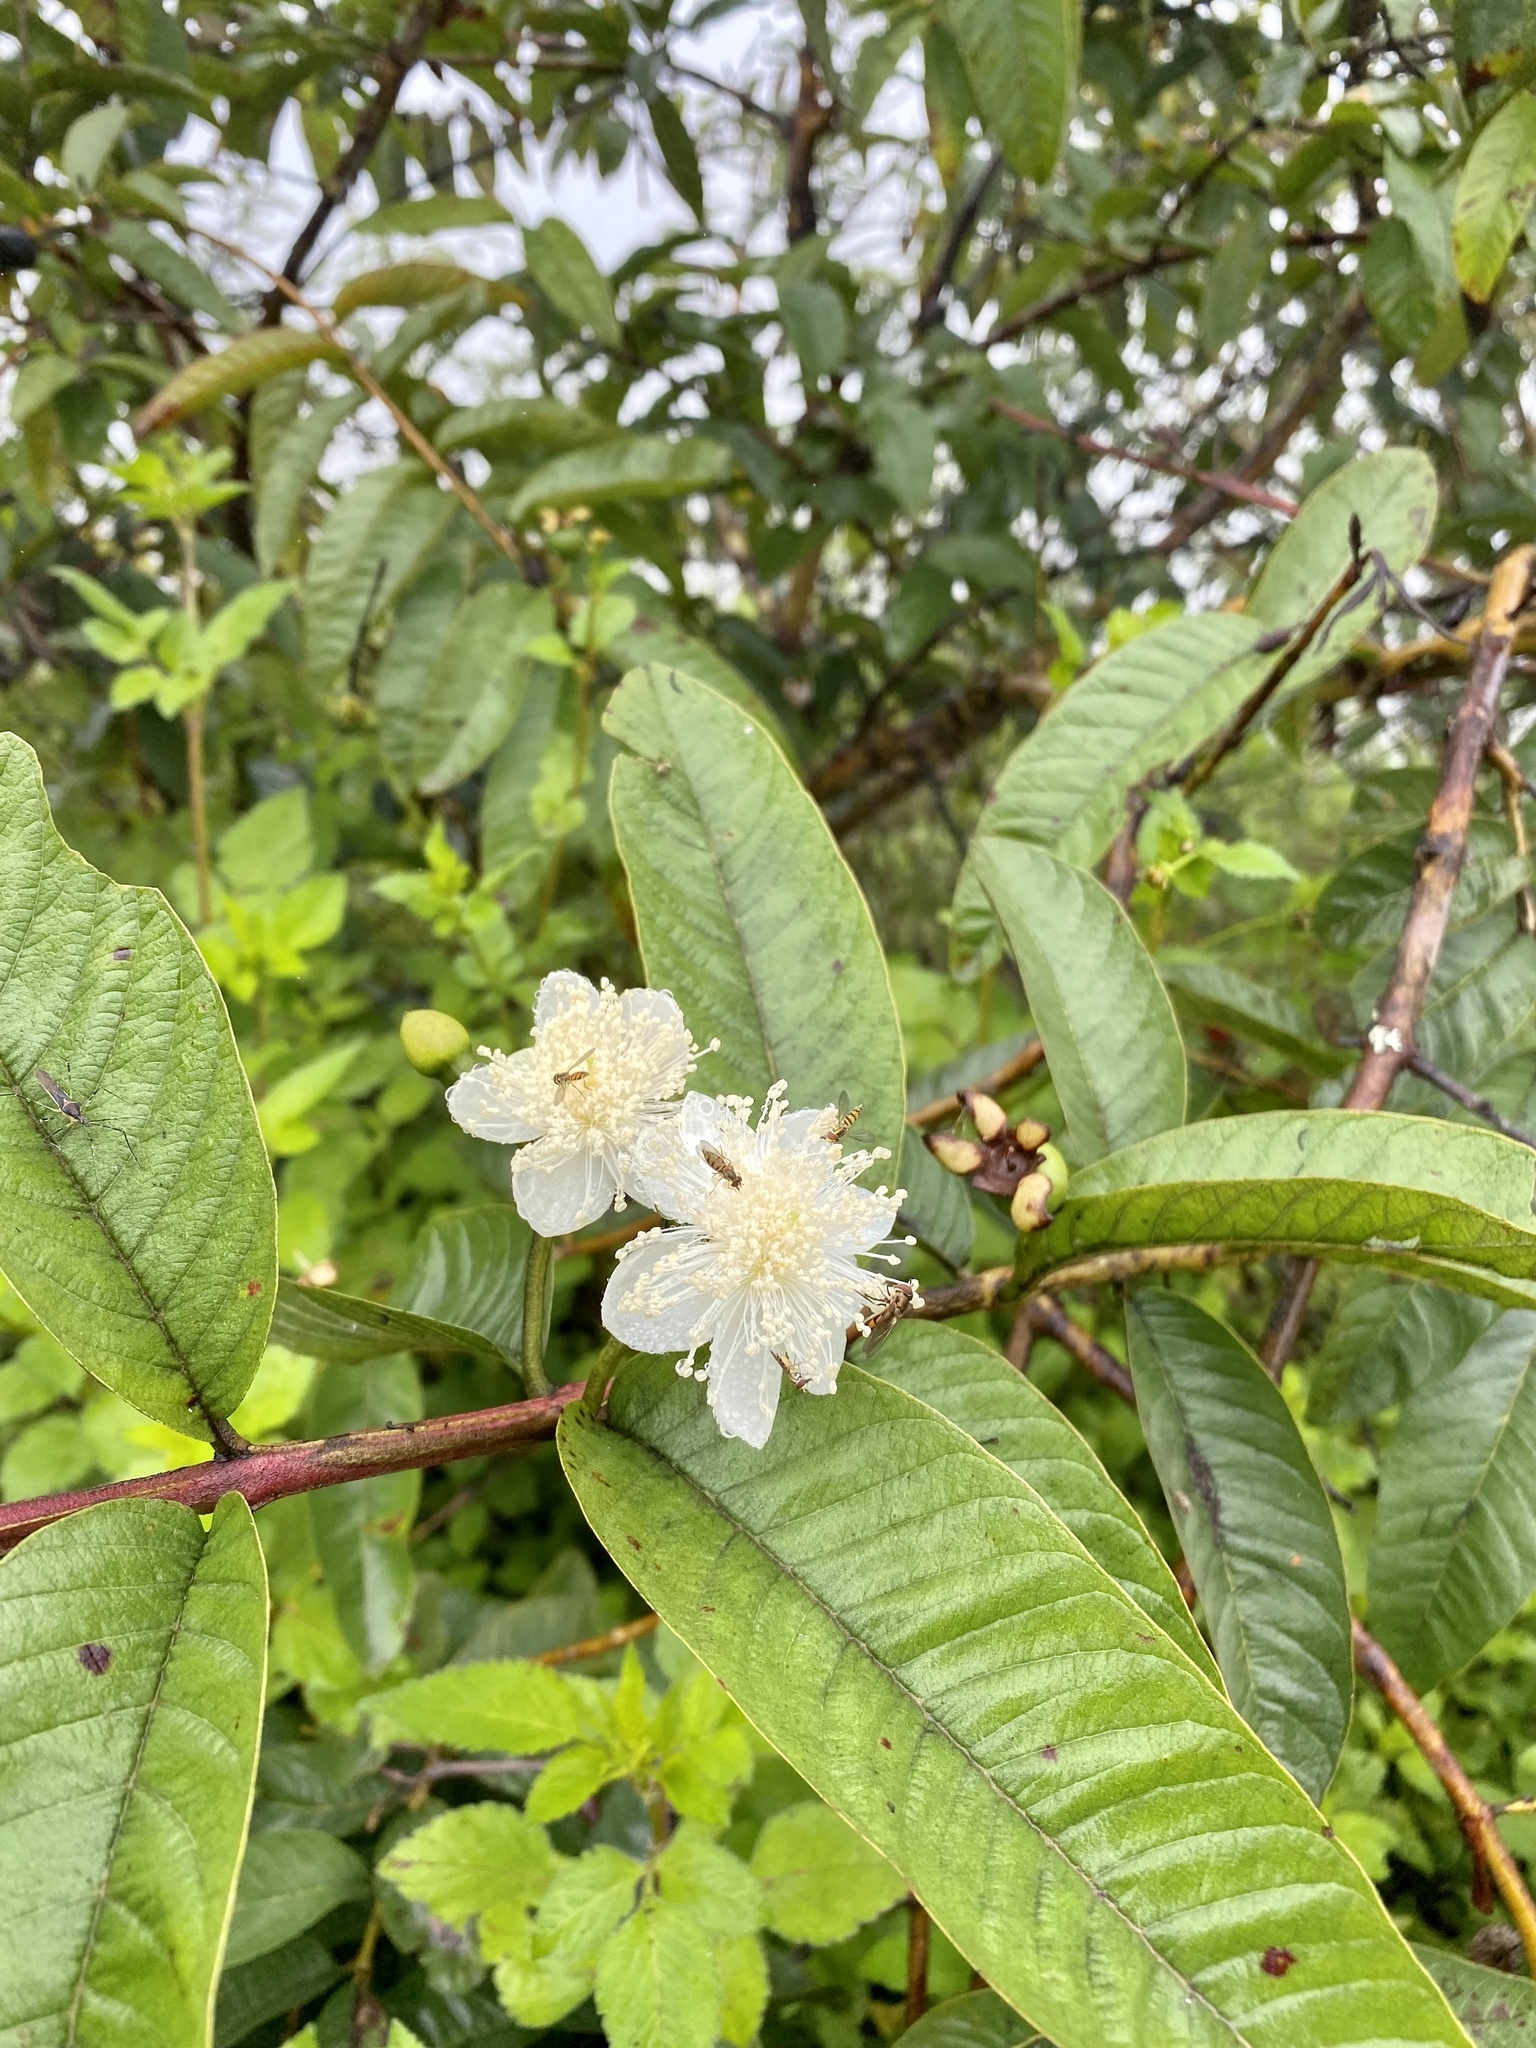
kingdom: Plantae
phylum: Tracheophyta
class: Magnoliopsida
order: Myrtales
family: Myrtaceae
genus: Psidium
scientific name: Psidium guajava
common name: Guava
